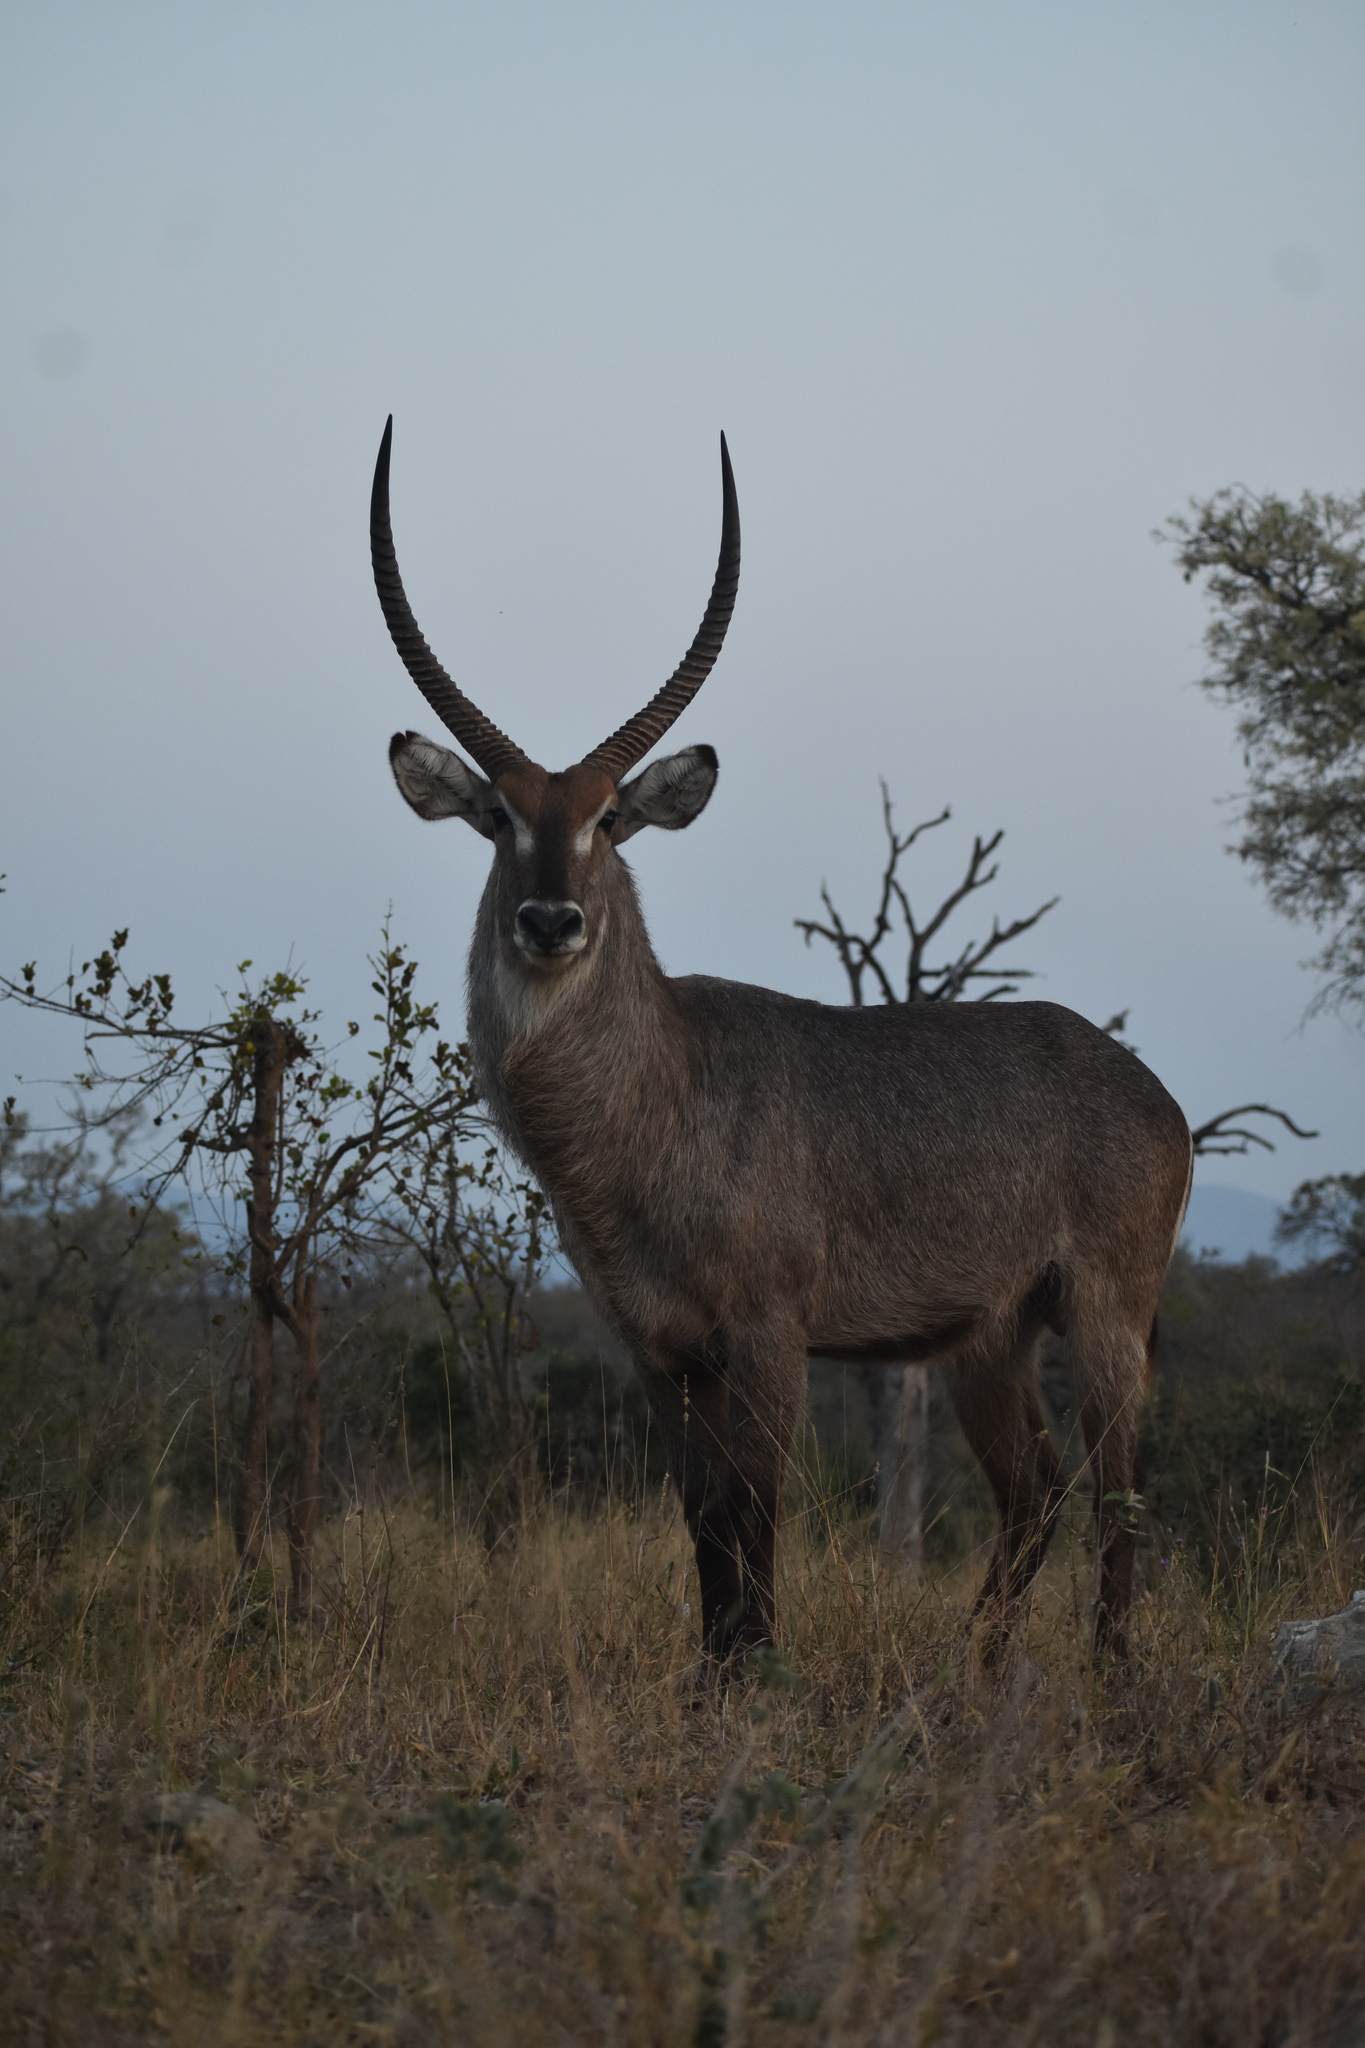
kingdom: Animalia
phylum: Chordata
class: Mammalia
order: Artiodactyla
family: Bovidae
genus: Kobus
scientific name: Kobus ellipsiprymnus
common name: Waterbuck
